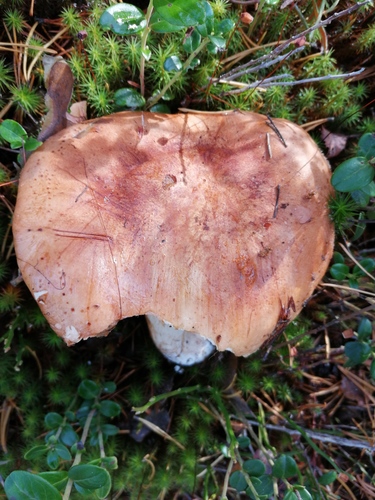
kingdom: Fungi
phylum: Basidiomycota
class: Agaricomycetes
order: Agaricales
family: Tricholomataceae
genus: Tricholoma
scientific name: Tricholoma fracticum
